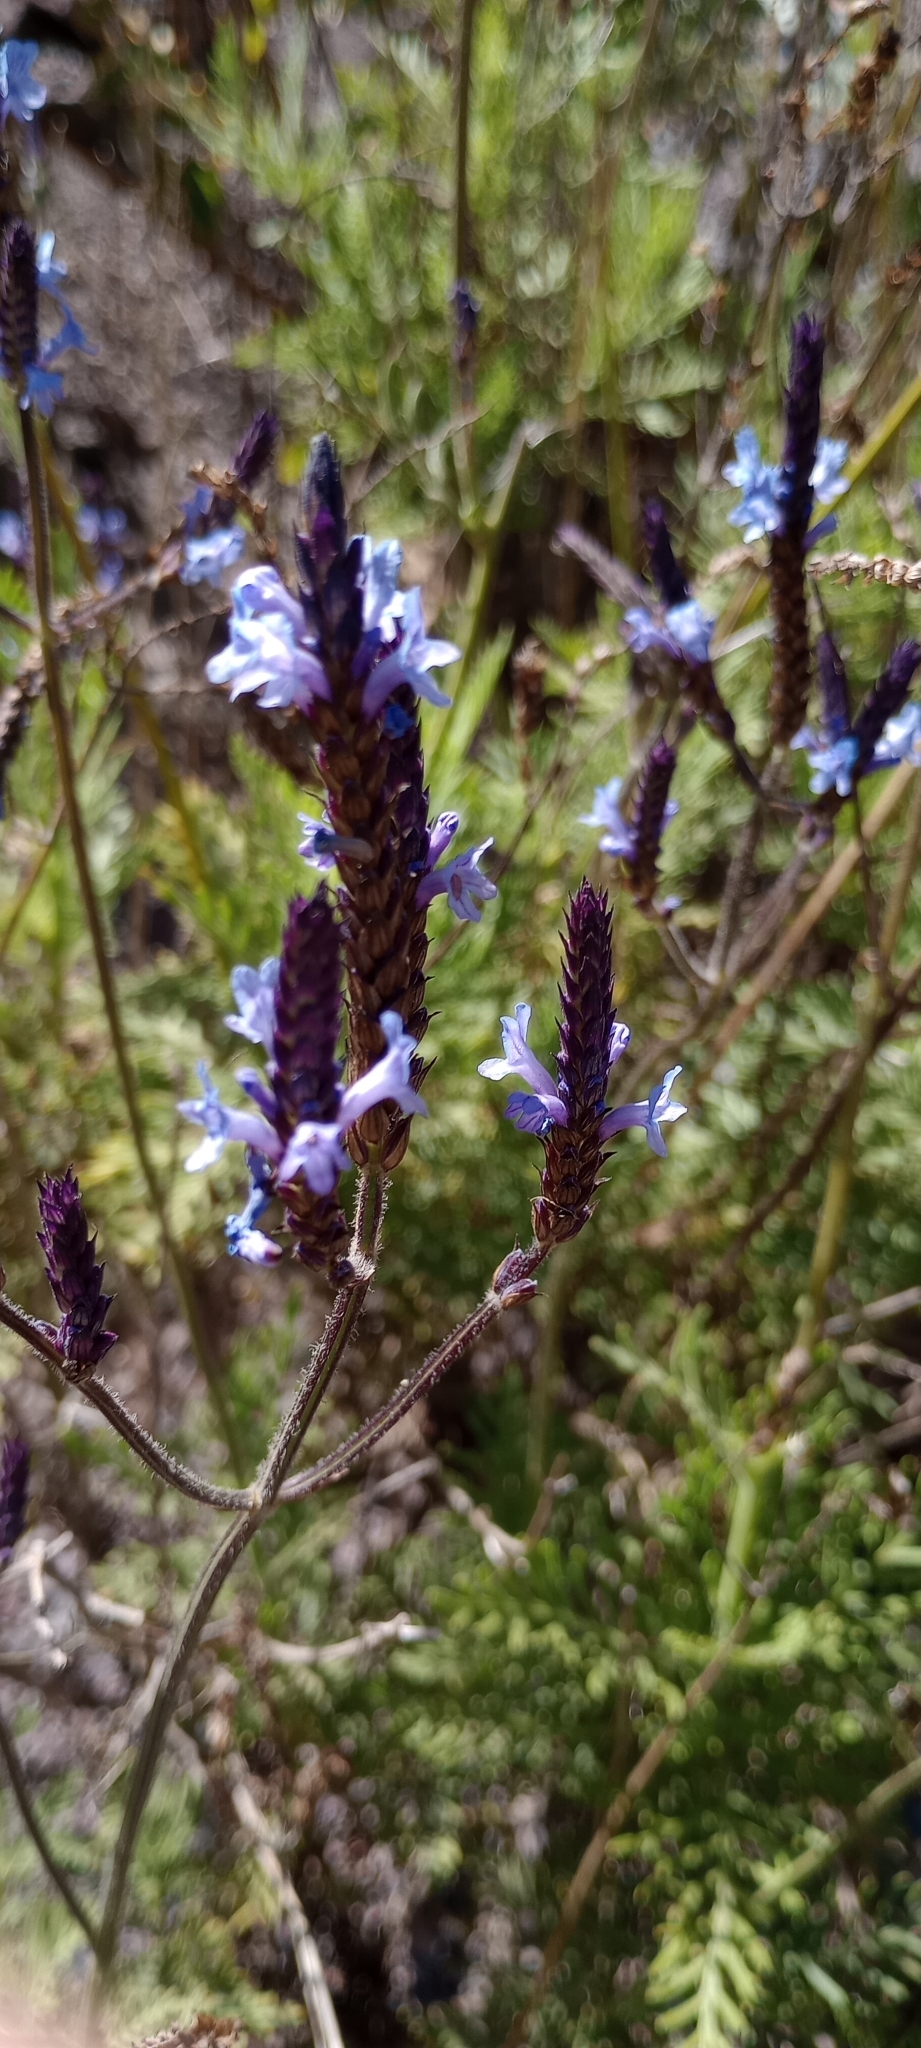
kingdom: Plantae
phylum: Tracheophyta
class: Magnoliopsida
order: Lamiales
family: Lamiaceae
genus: Lavandula
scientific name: Lavandula canariensis
